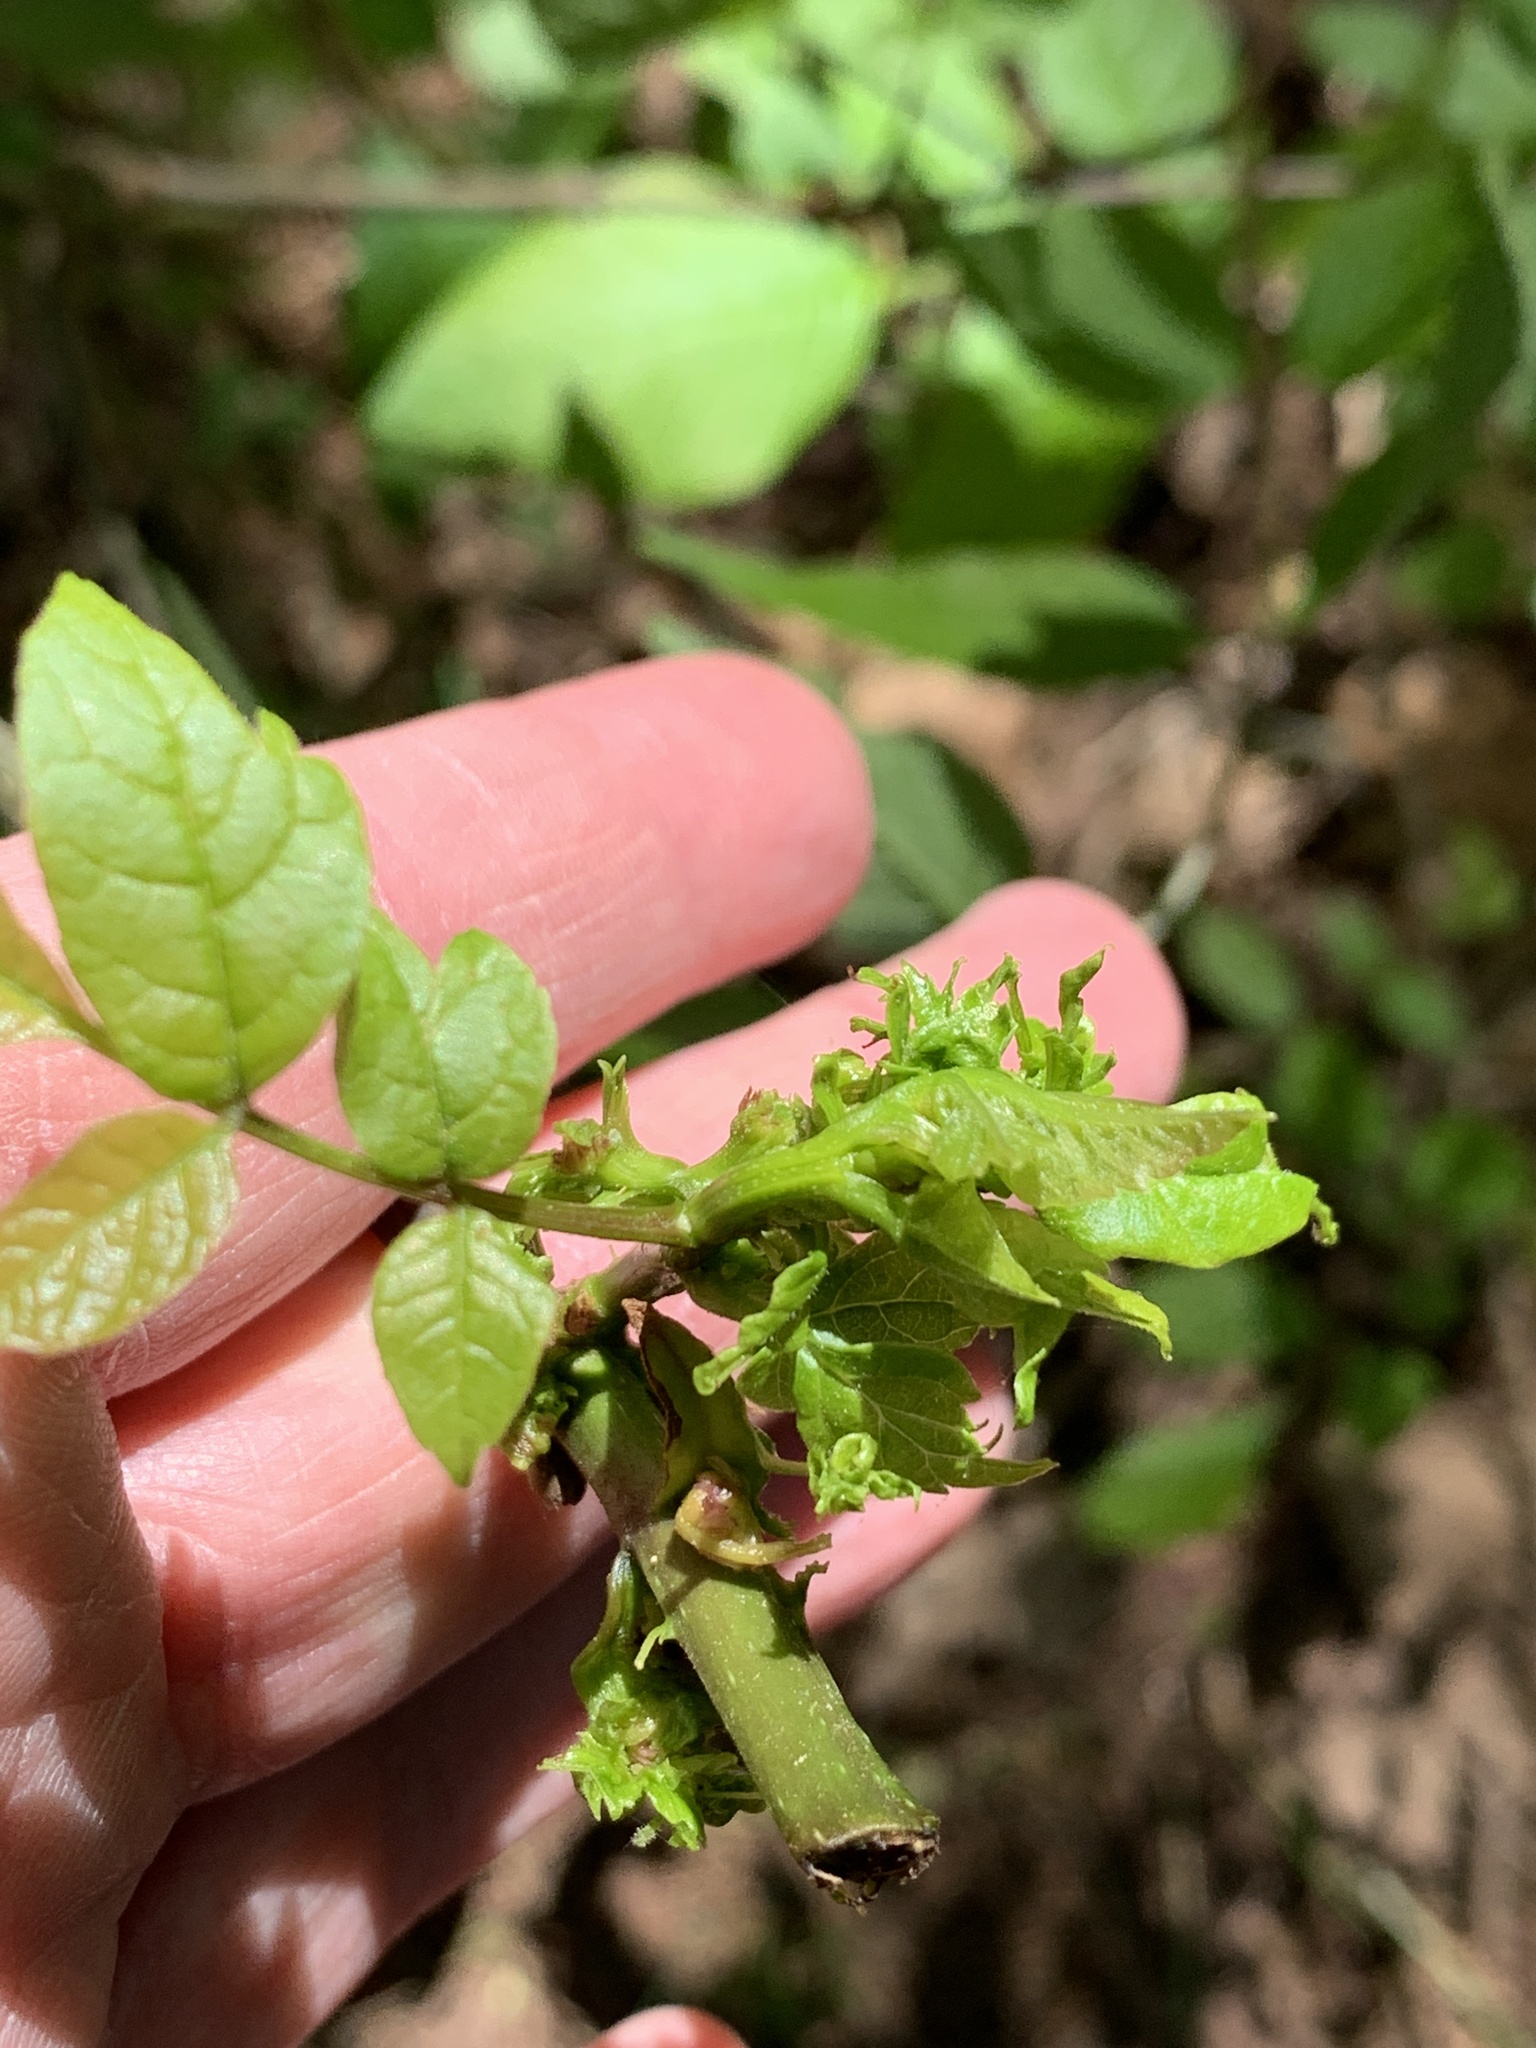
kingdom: Bacteria
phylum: Firmicutes
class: Bacilli
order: Acholeplasmatales
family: Acholeplasmataceae
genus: Phytoplasma
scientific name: Phytoplasma
